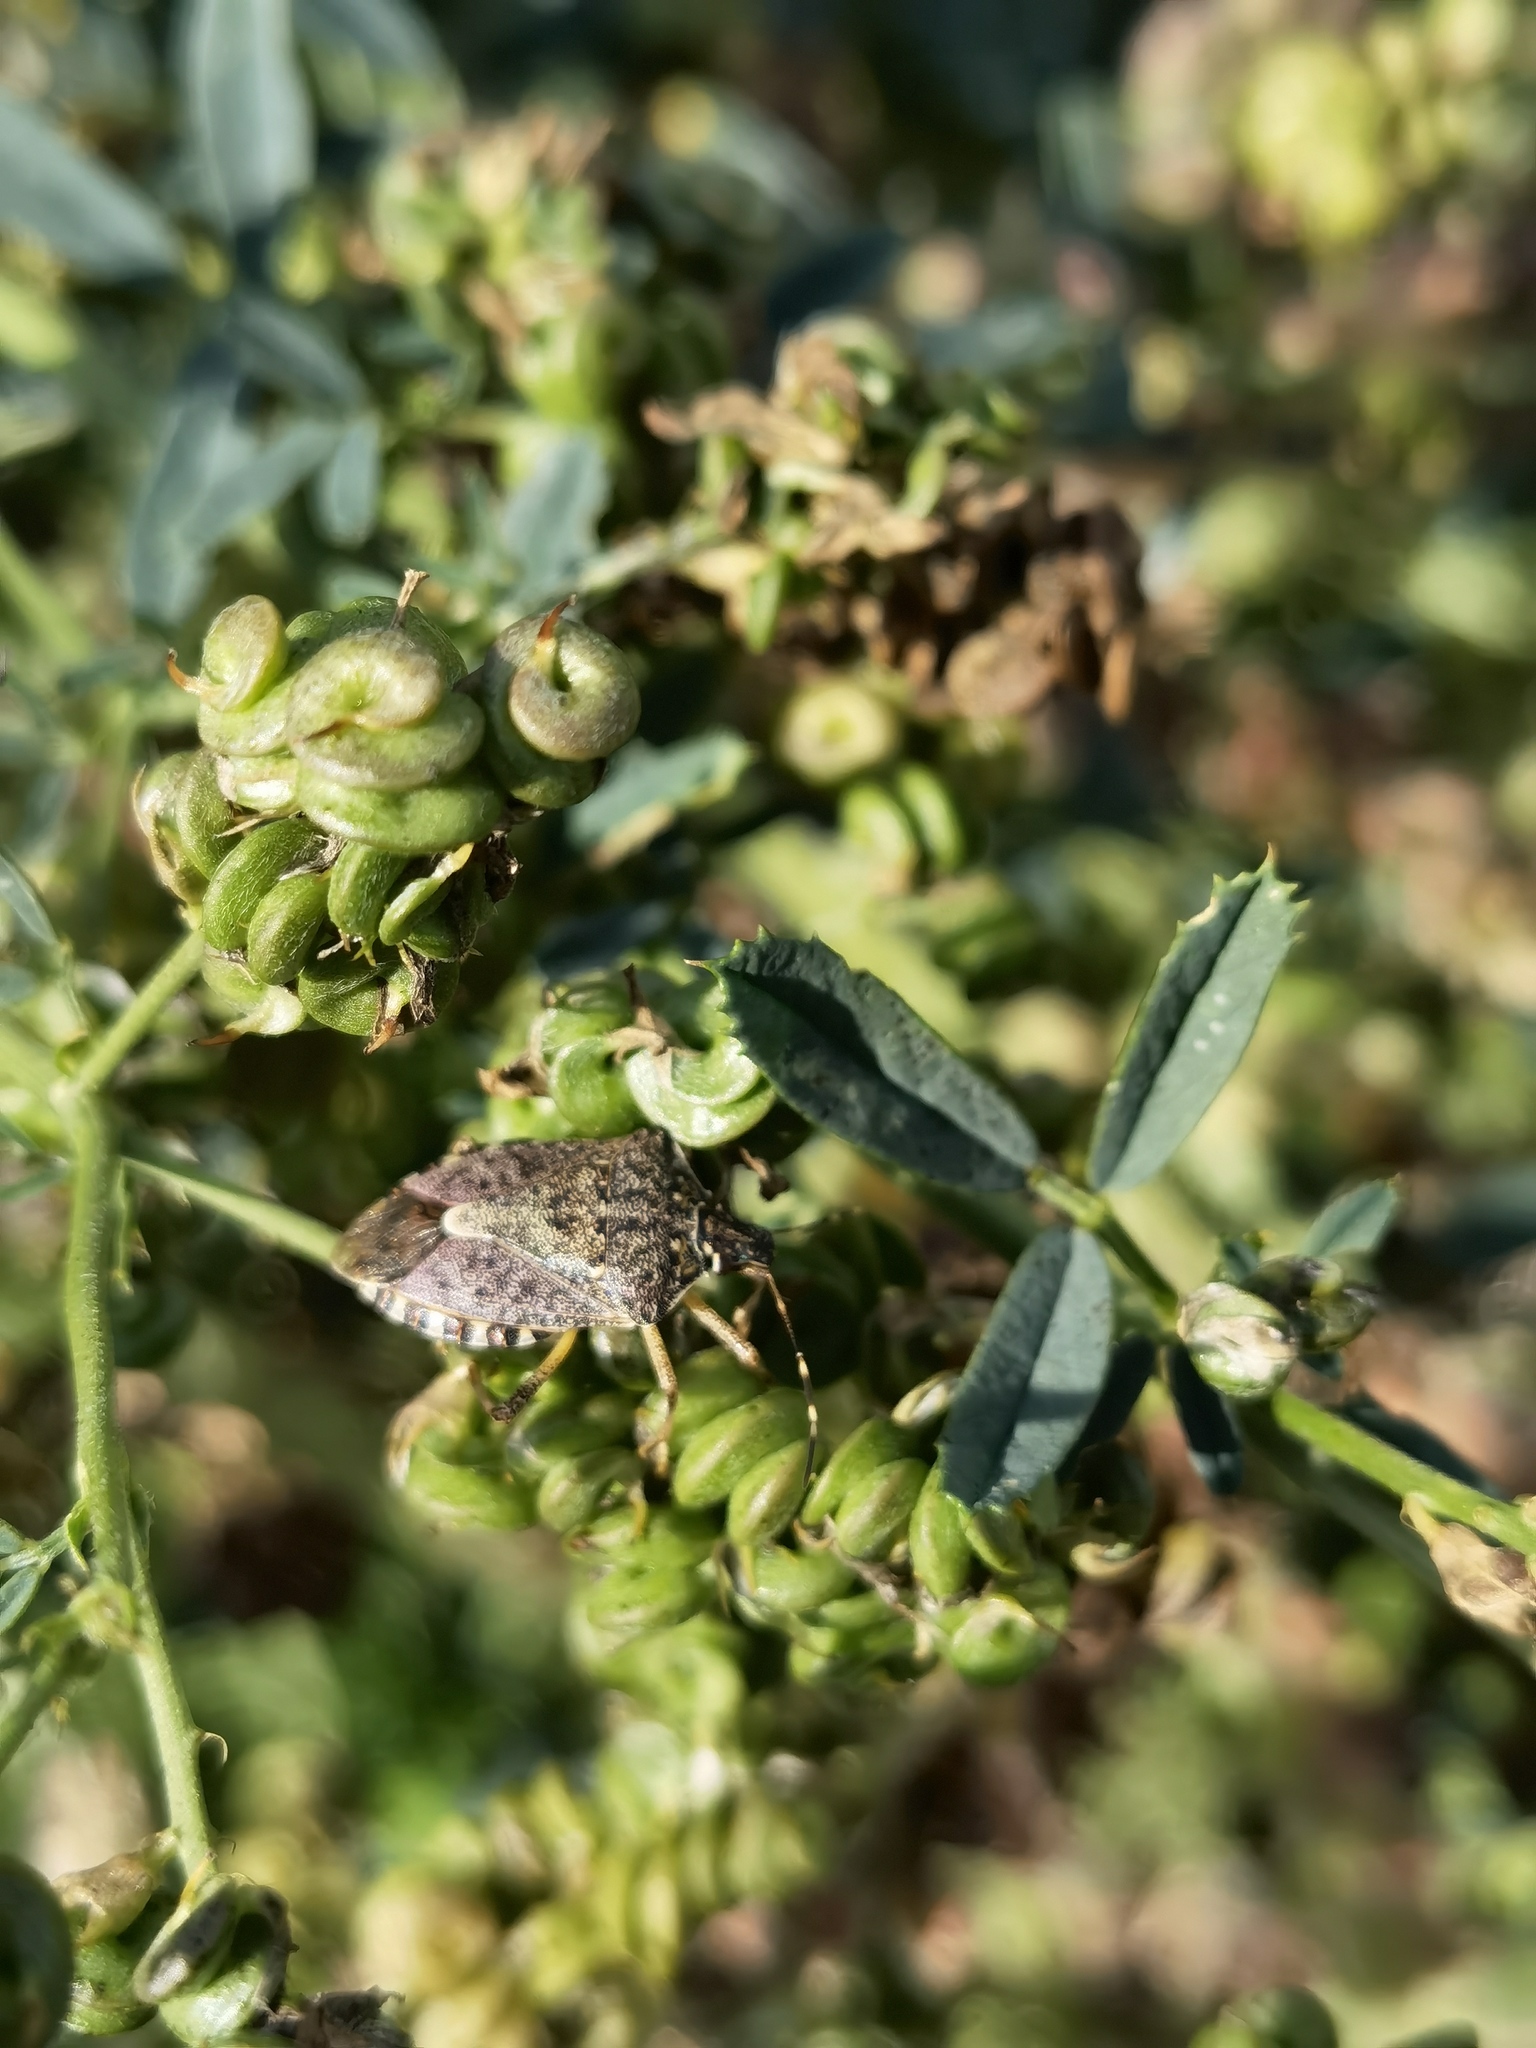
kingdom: Animalia
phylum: Arthropoda
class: Insecta
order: Hemiptera
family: Pentatomidae
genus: Halyomorpha
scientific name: Halyomorpha halys
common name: Brown marmorated stink bug
